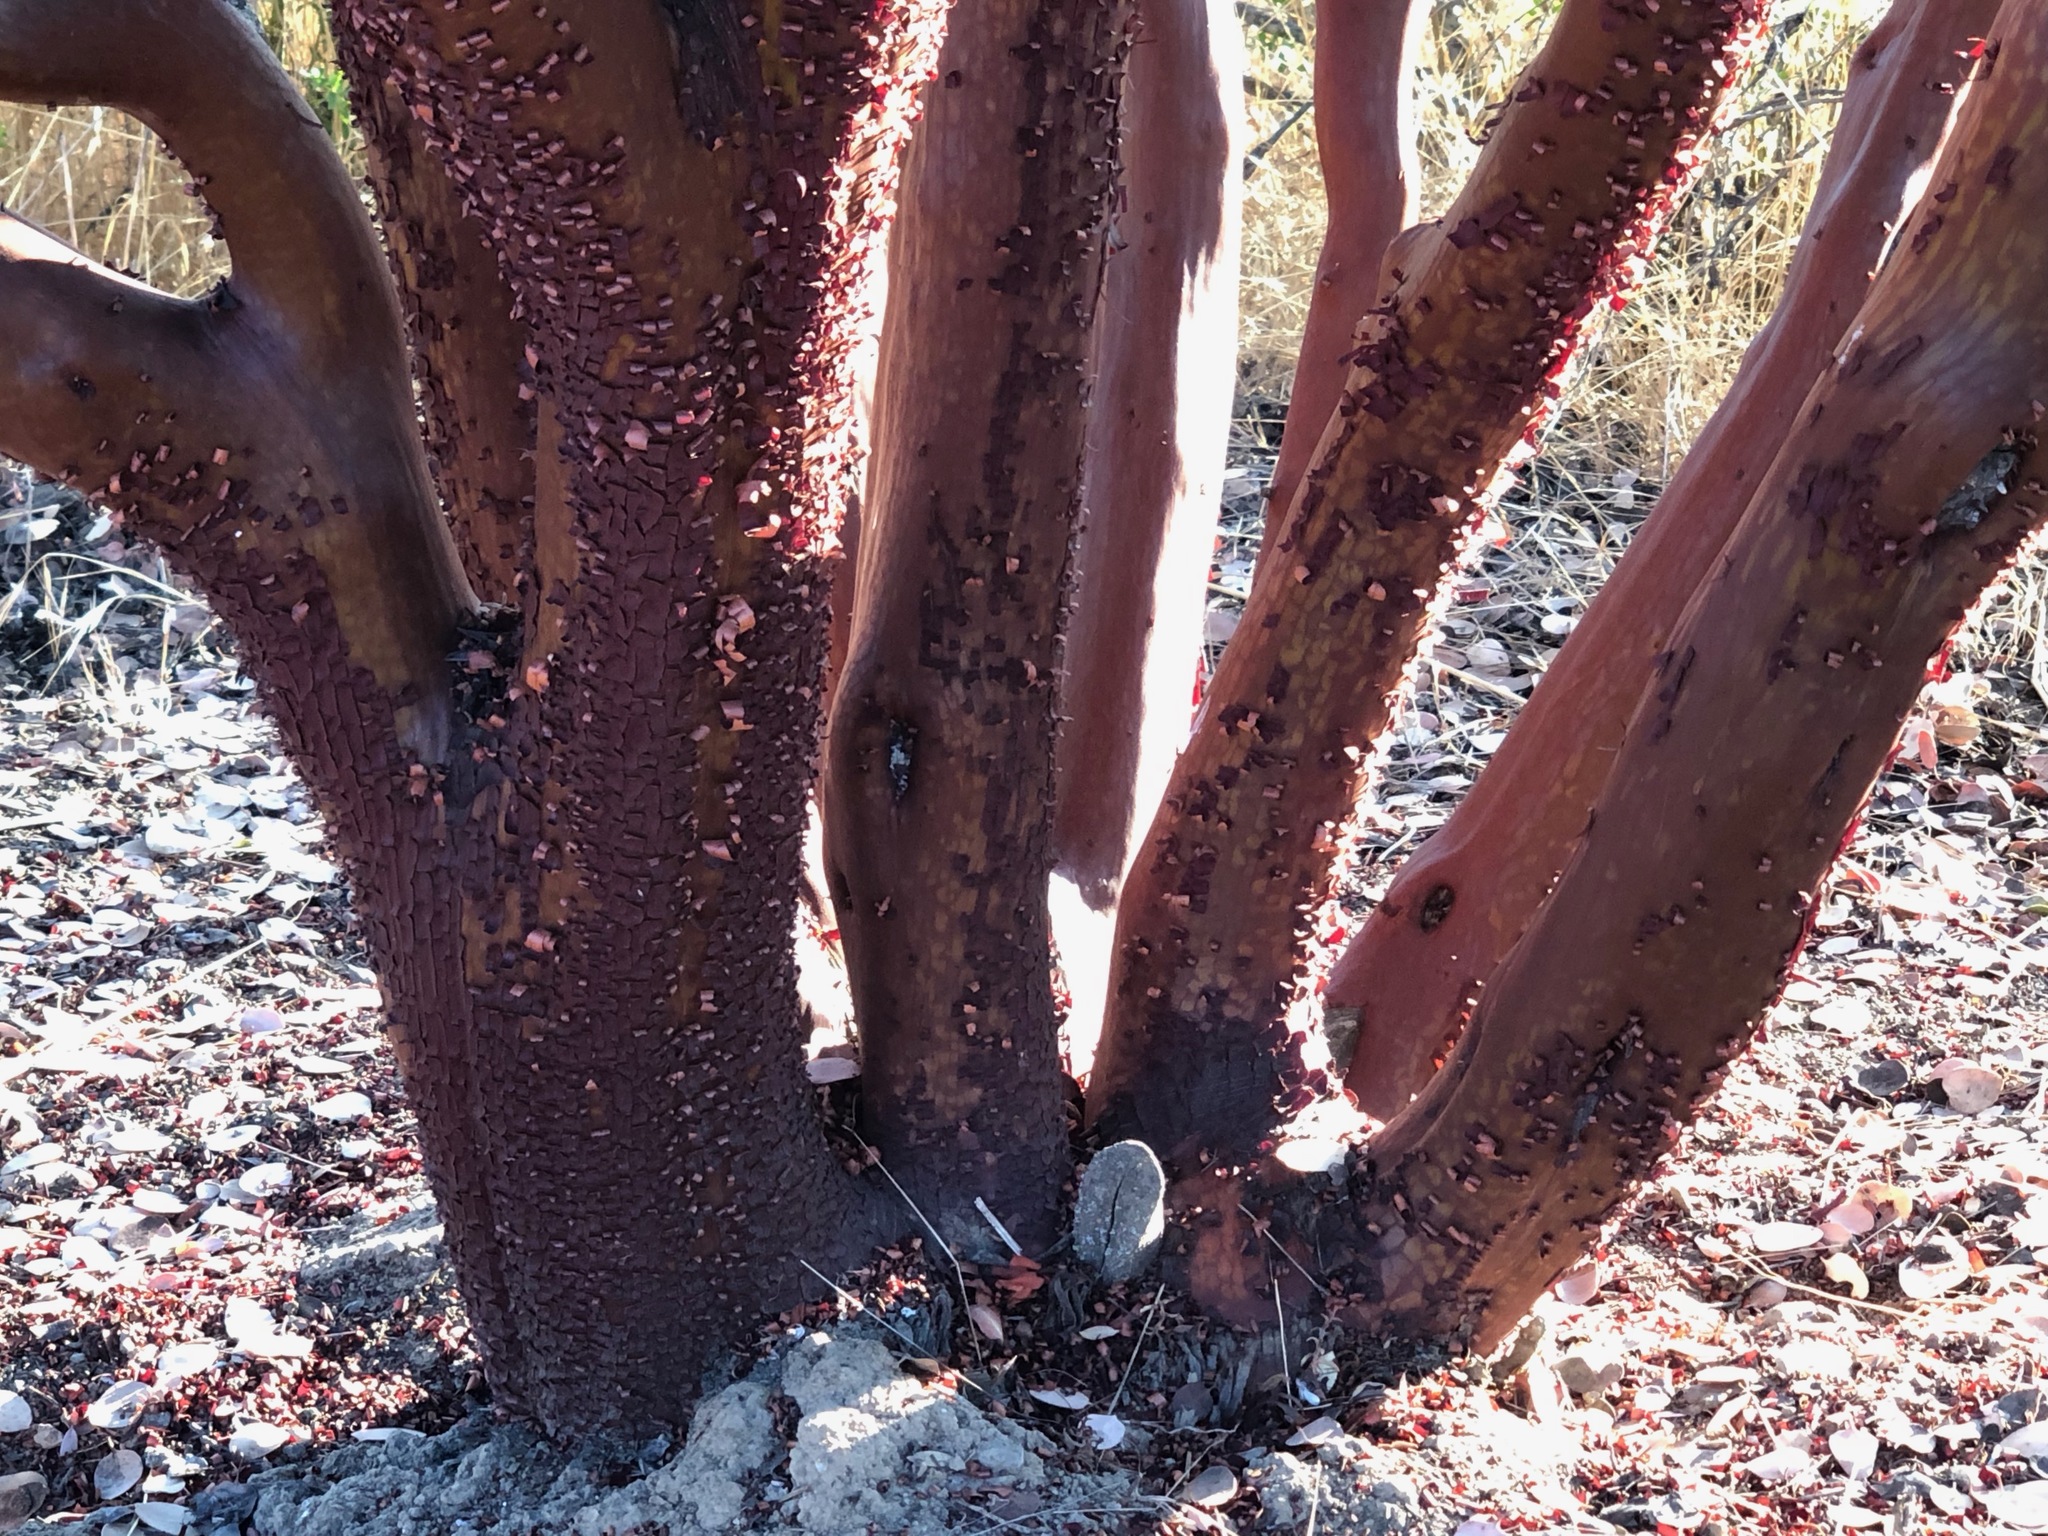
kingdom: Plantae
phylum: Tracheophyta
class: Magnoliopsida
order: Ericales
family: Ericaceae
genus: Arctostaphylos
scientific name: Arctostaphylos glauca
